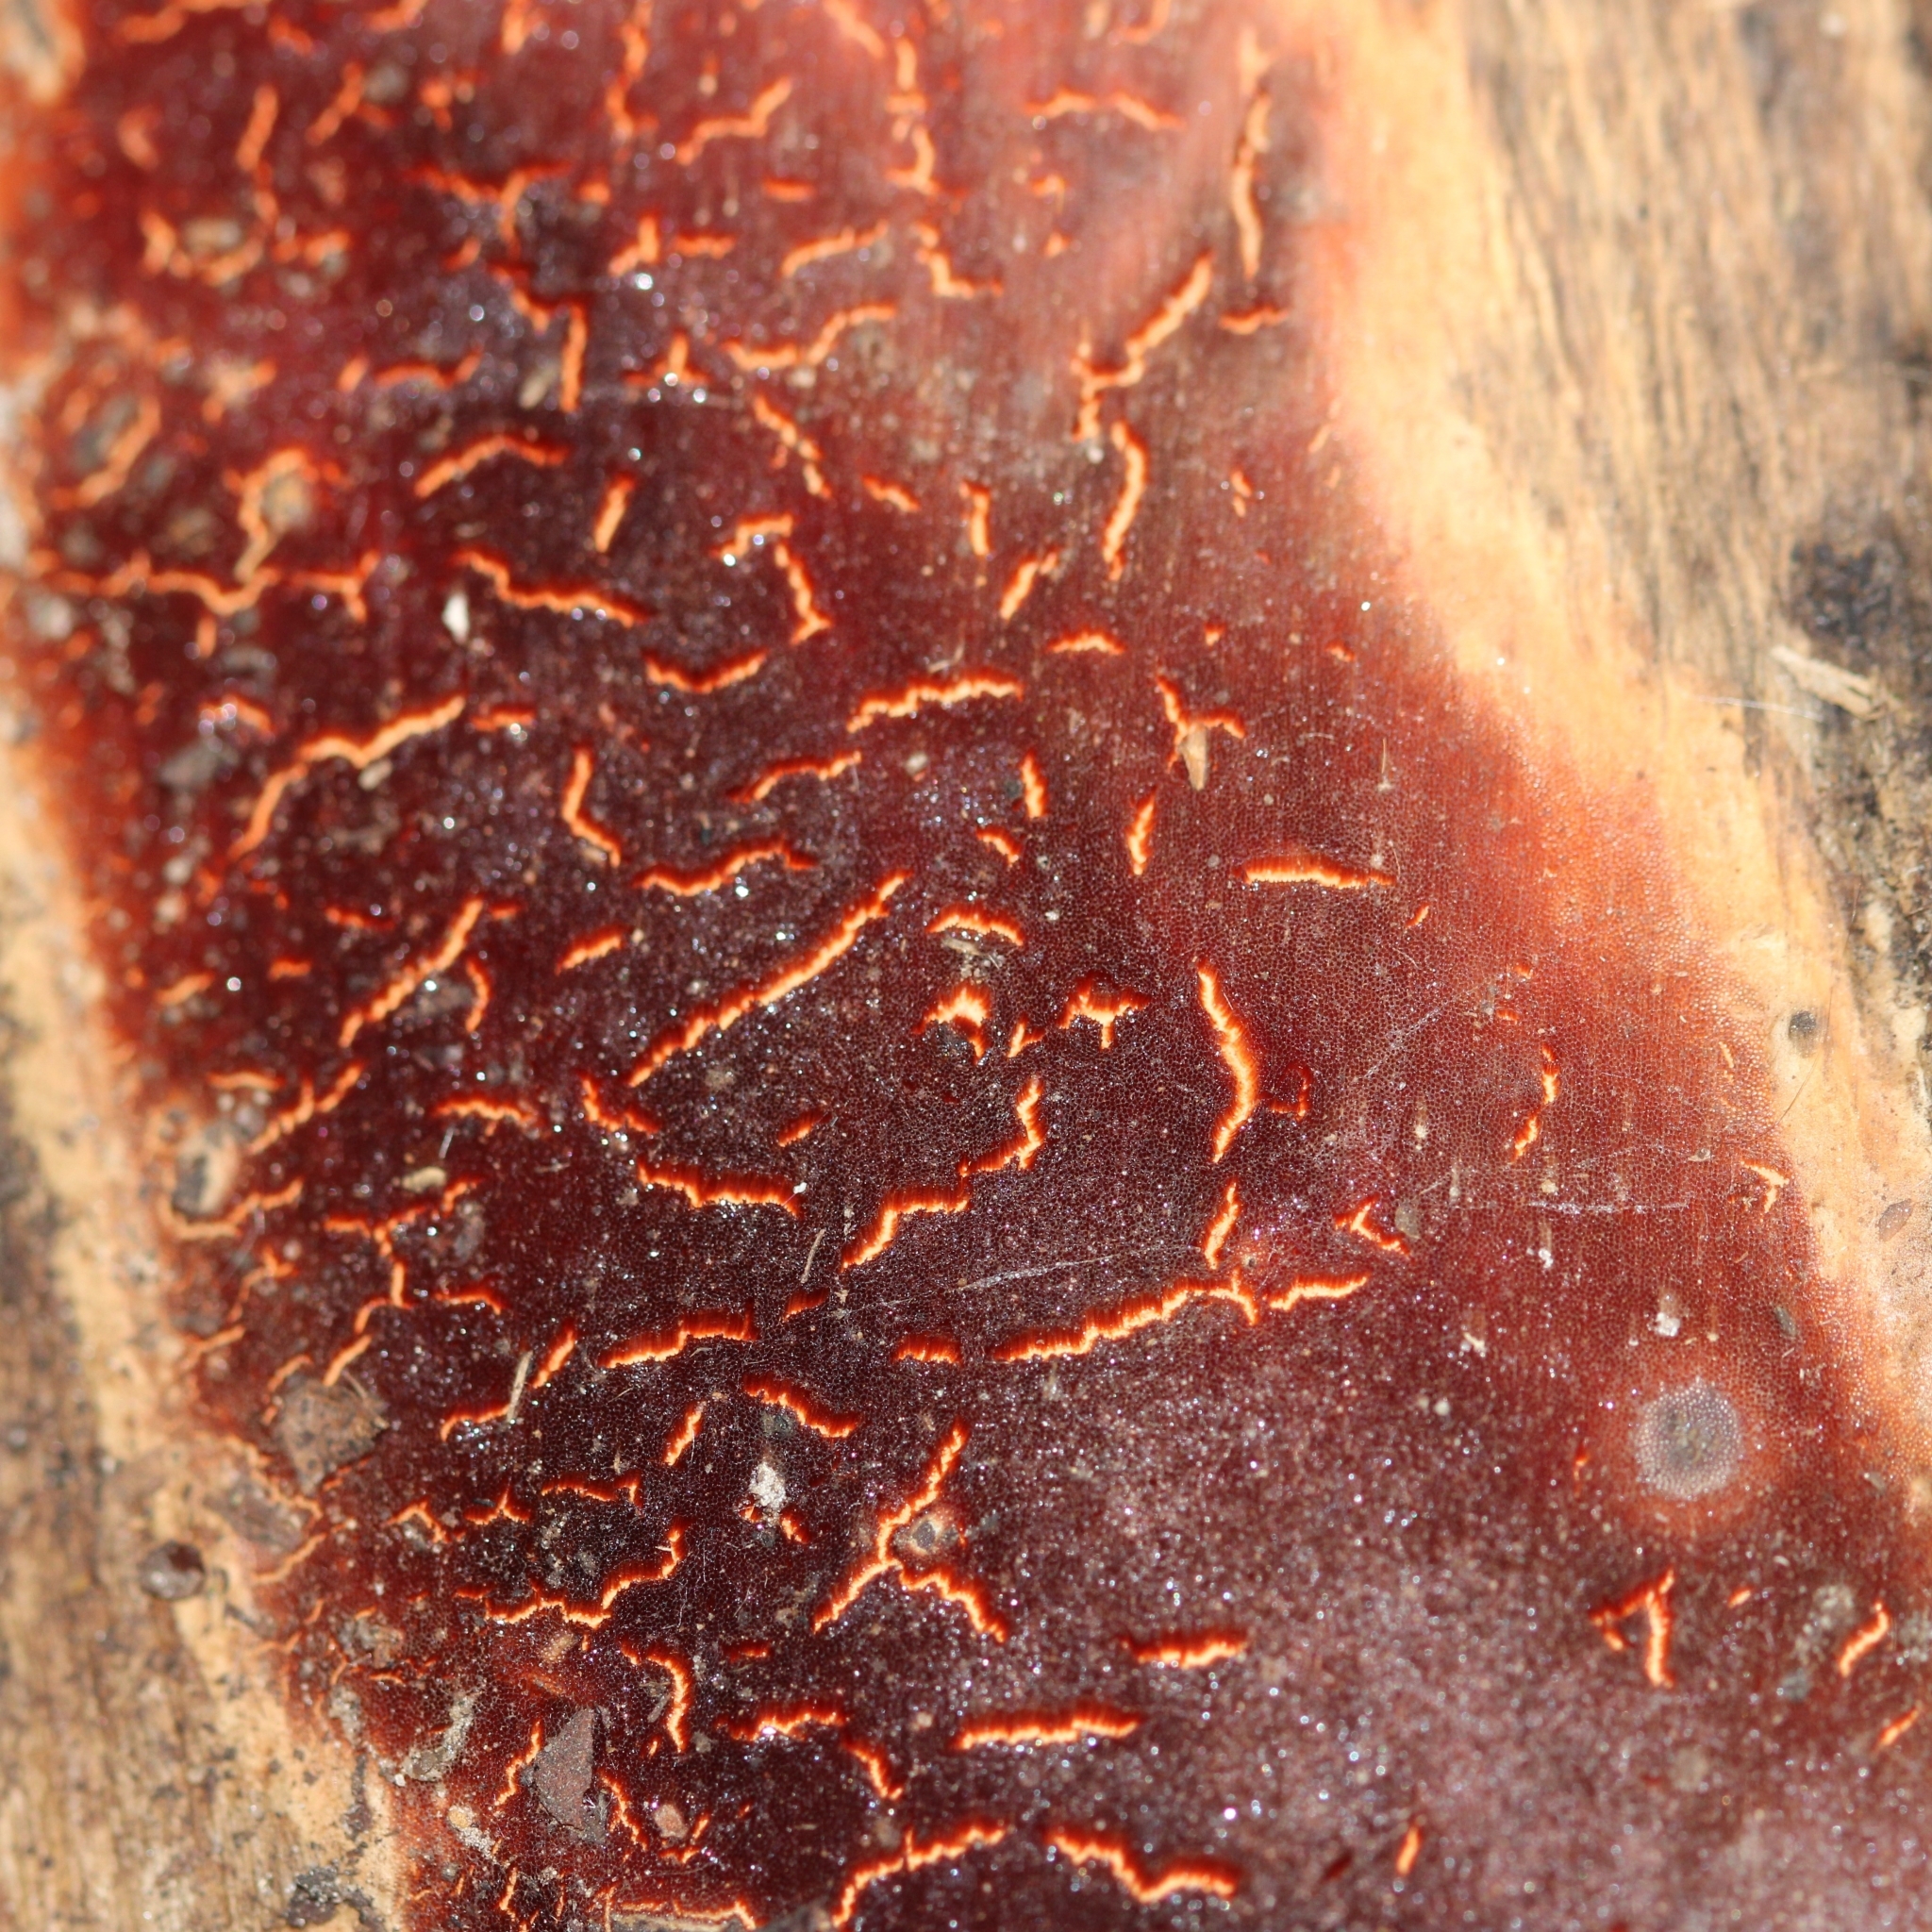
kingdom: Fungi
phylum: Basidiomycota
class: Agaricomycetes
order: Hymenochaetales
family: Hymenochaetaceae
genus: Fomitiporia
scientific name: Fomitiporia punctata
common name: Elbowpatch crust
